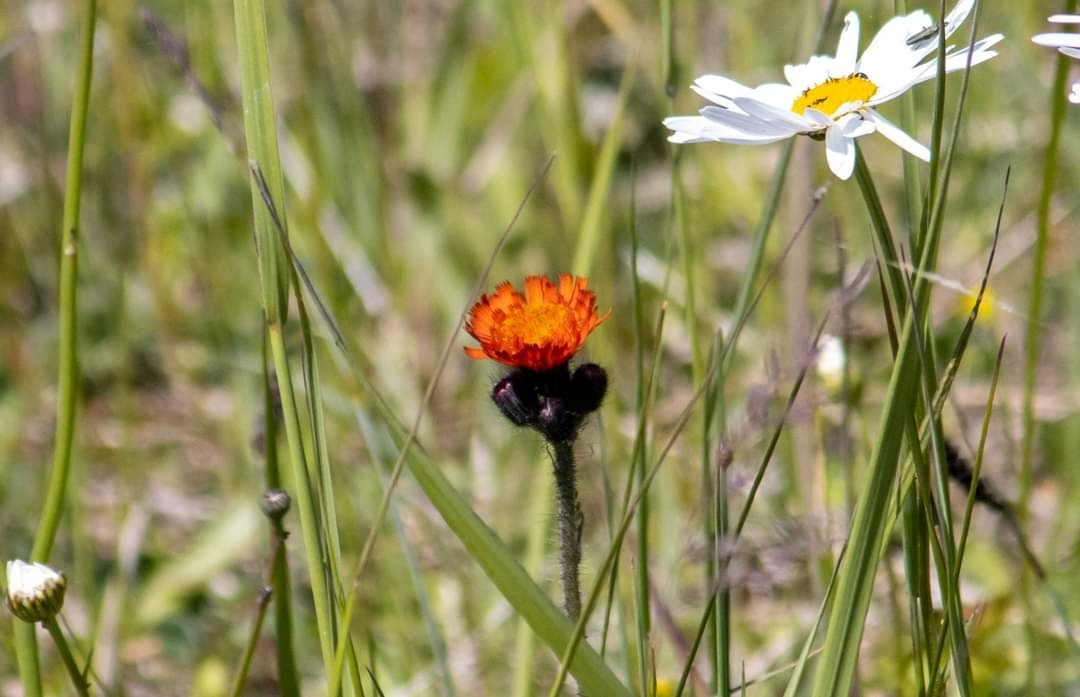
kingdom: Plantae
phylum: Tracheophyta
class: Magnoliopsida
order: Asterales
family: Asteraceae
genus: Pilosella
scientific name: Pilosella aurantiaca
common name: Fox-and-cubs
